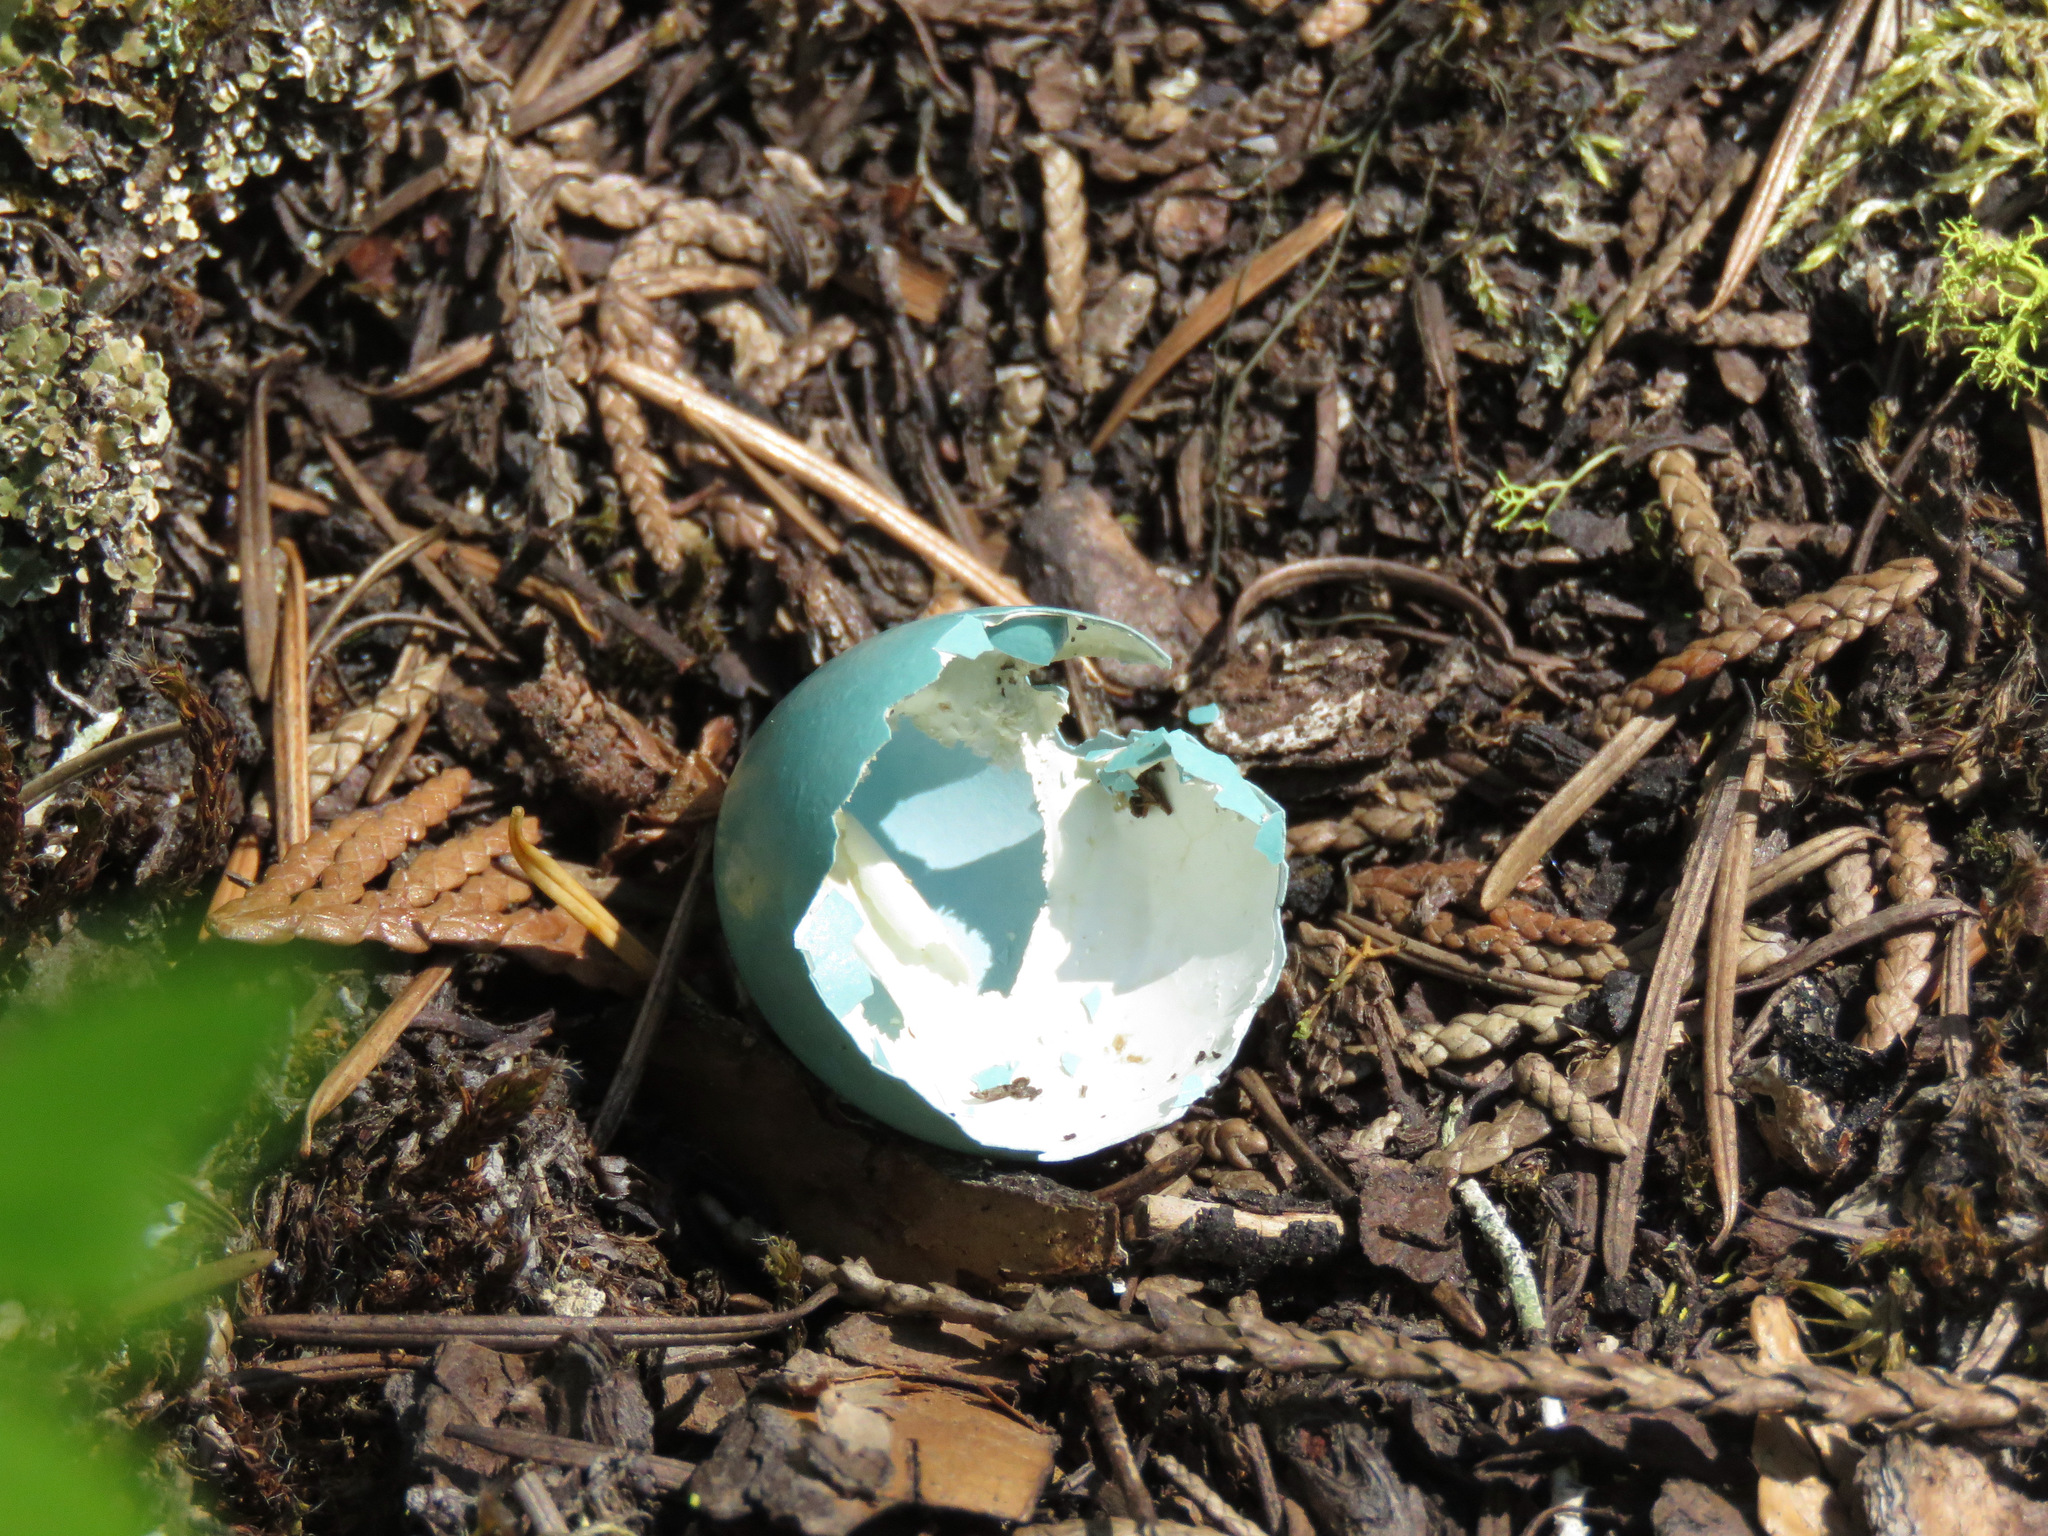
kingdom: Animalia
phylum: Chordata
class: Aves
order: Passeriformes
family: Turdidae
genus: Turdus
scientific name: Turdus migratorius
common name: American robin
